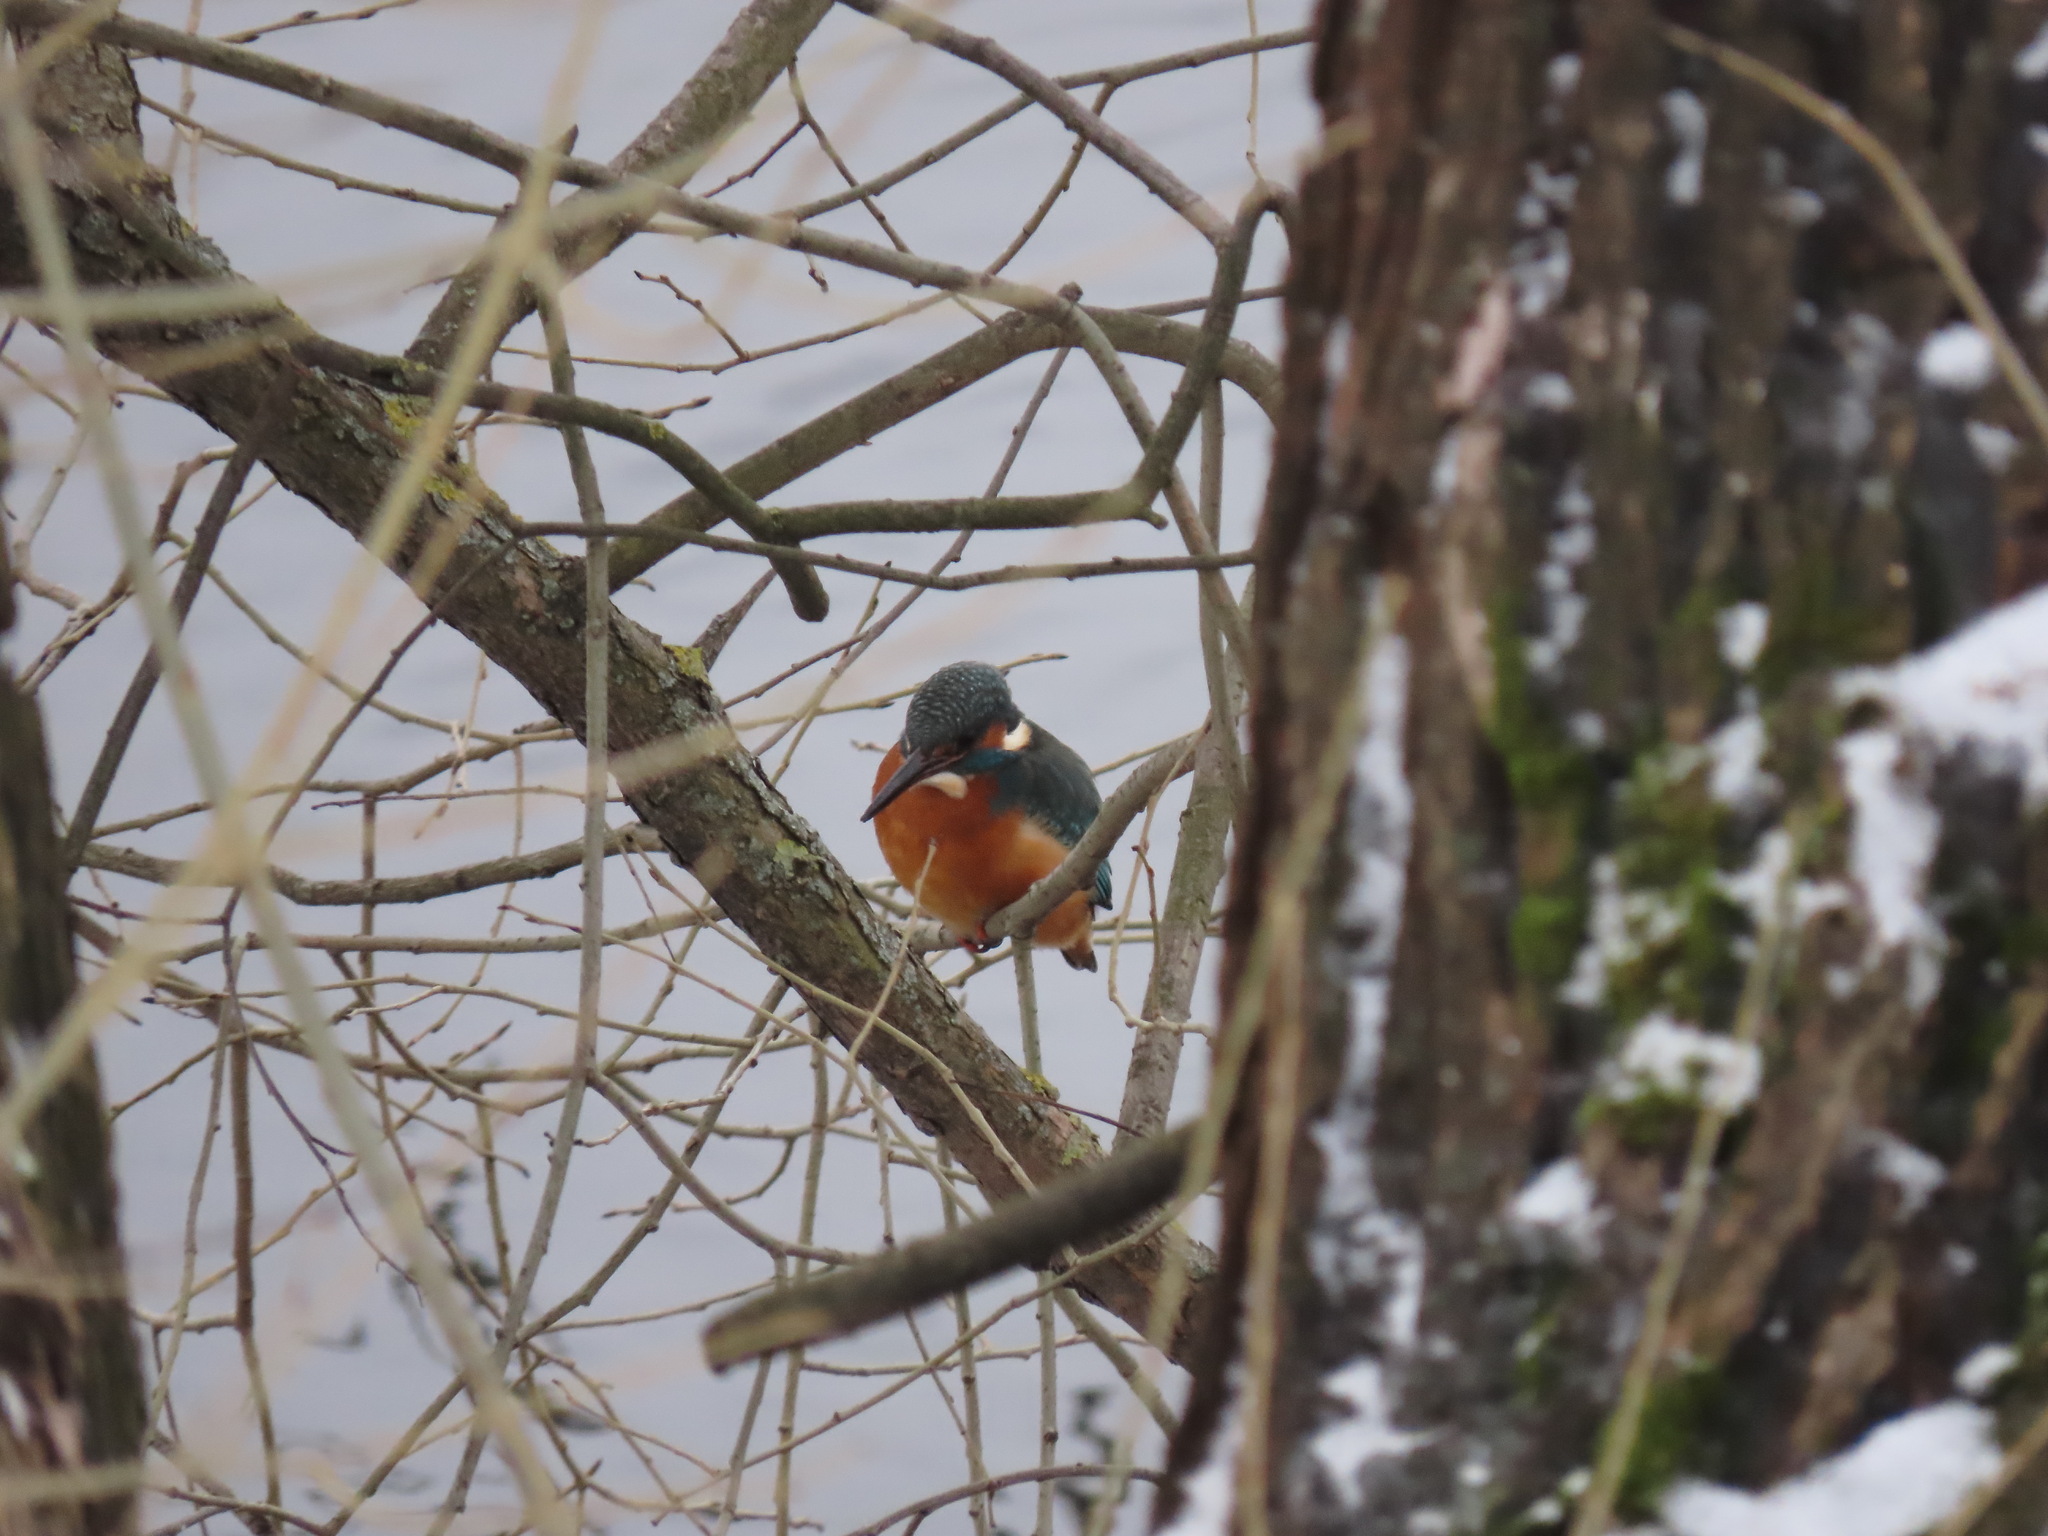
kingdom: Animalia
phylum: Chordata
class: Aves
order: Coraciiformes
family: Alcedinidae
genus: Alcedo
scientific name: Alcedo atthis
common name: Common kingfisher
